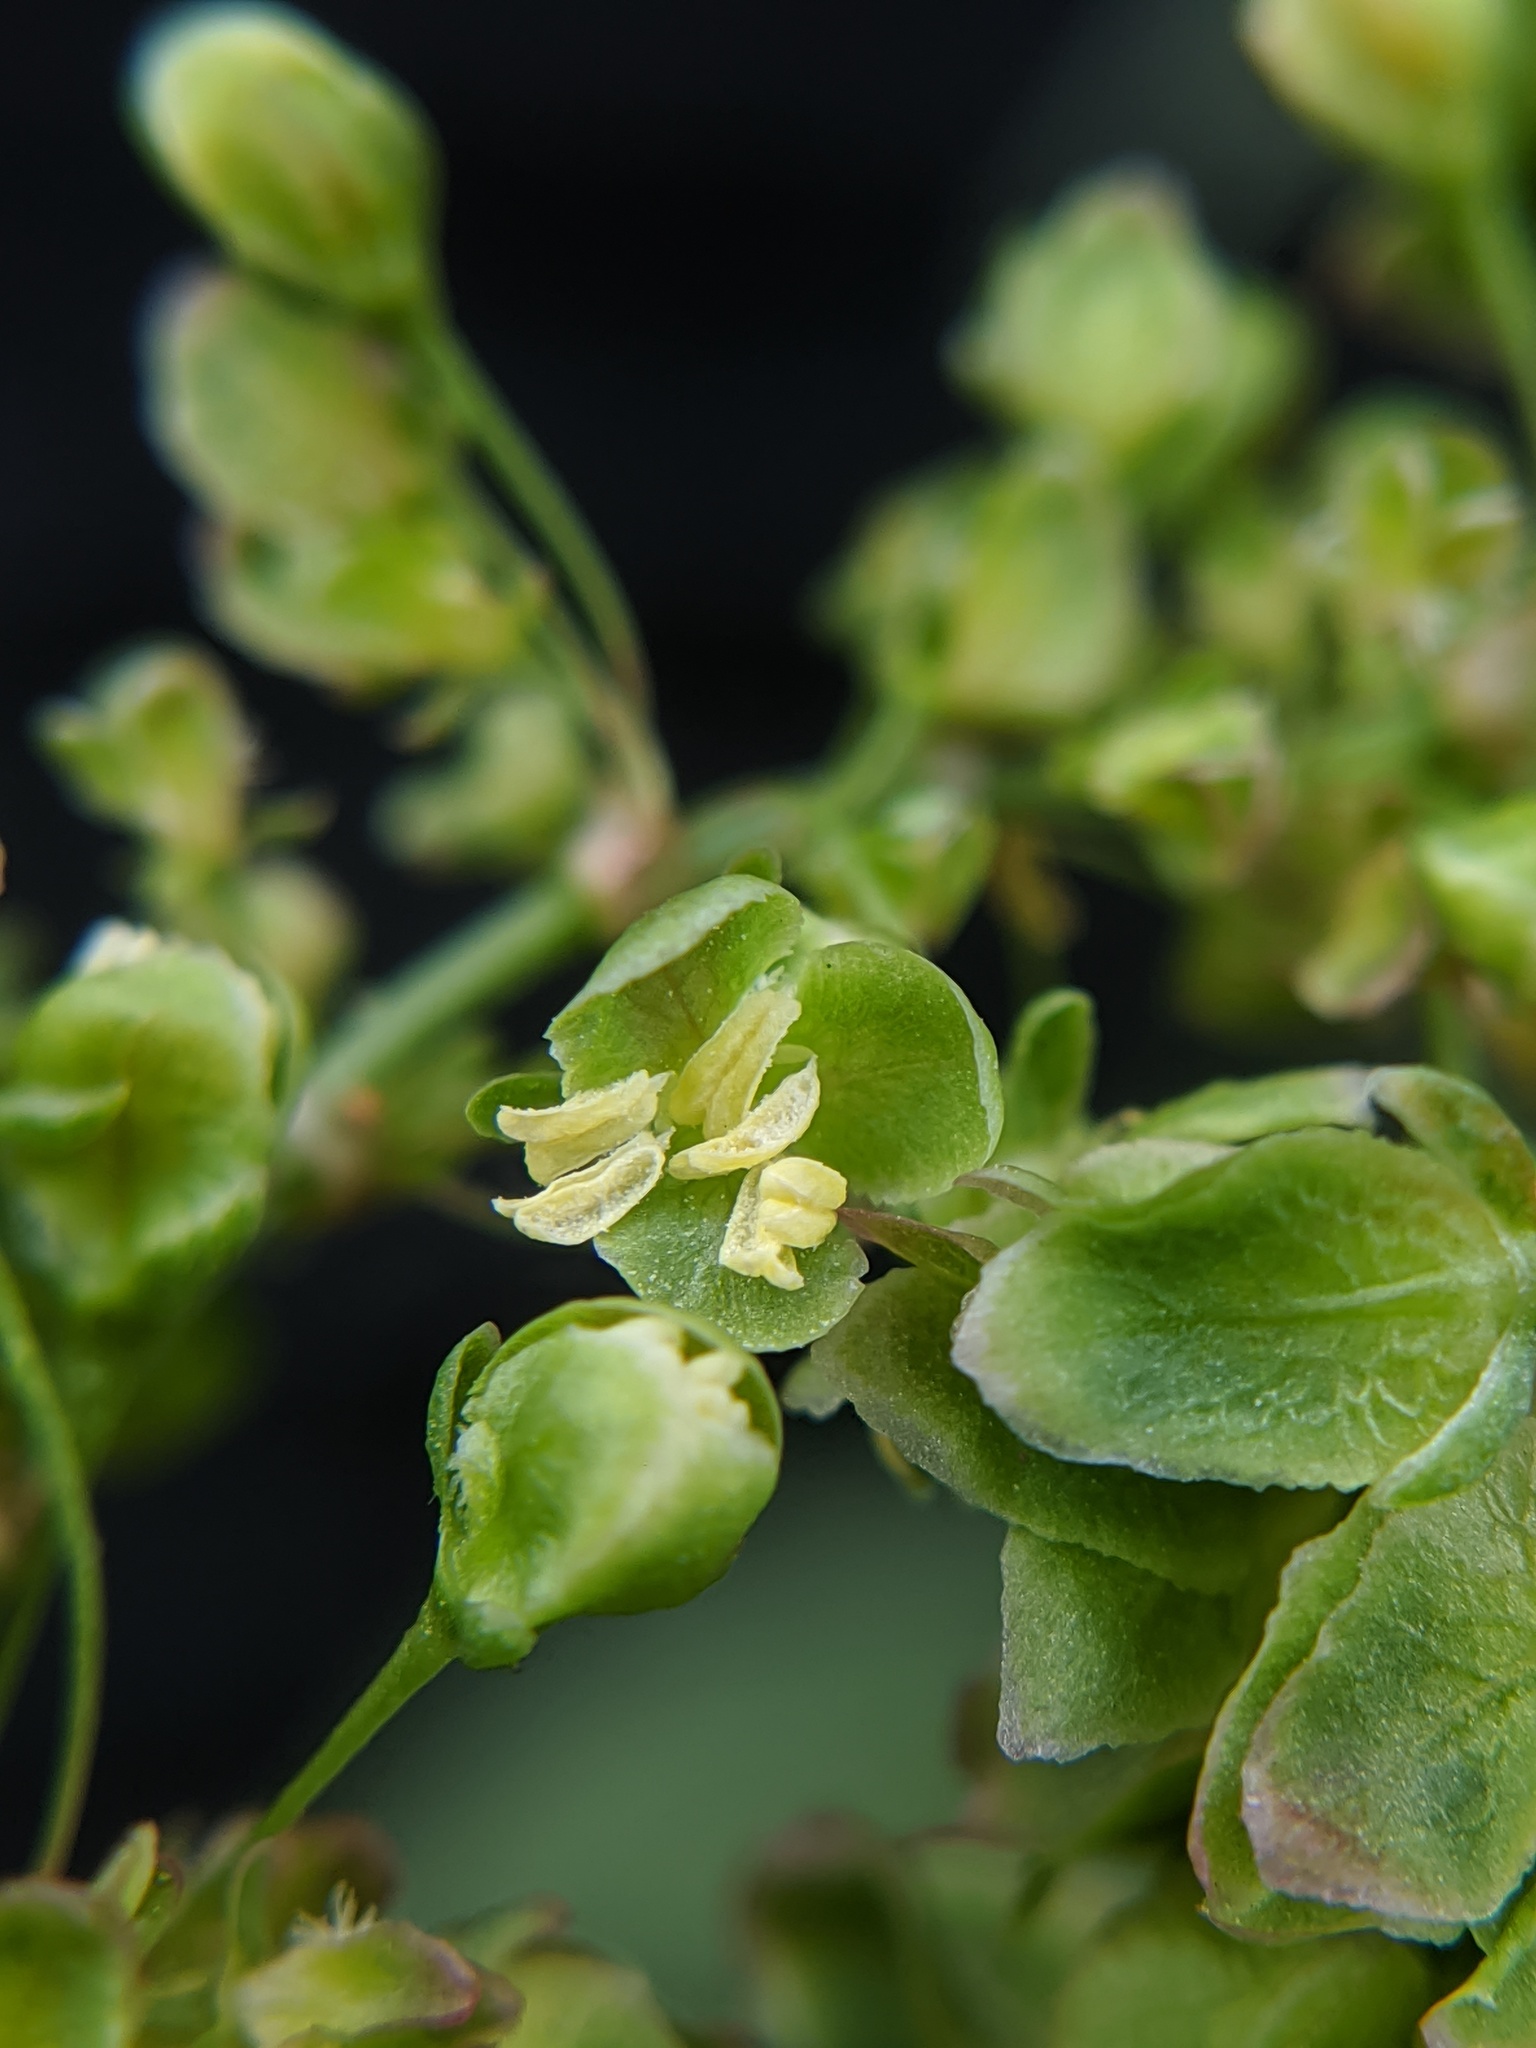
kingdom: Plantae
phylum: Tracheophyta
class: Magnoliopsida
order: Caryophyllales
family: Polygonaceae
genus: Rumex
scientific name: Rumex crispus
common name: Curled dock
